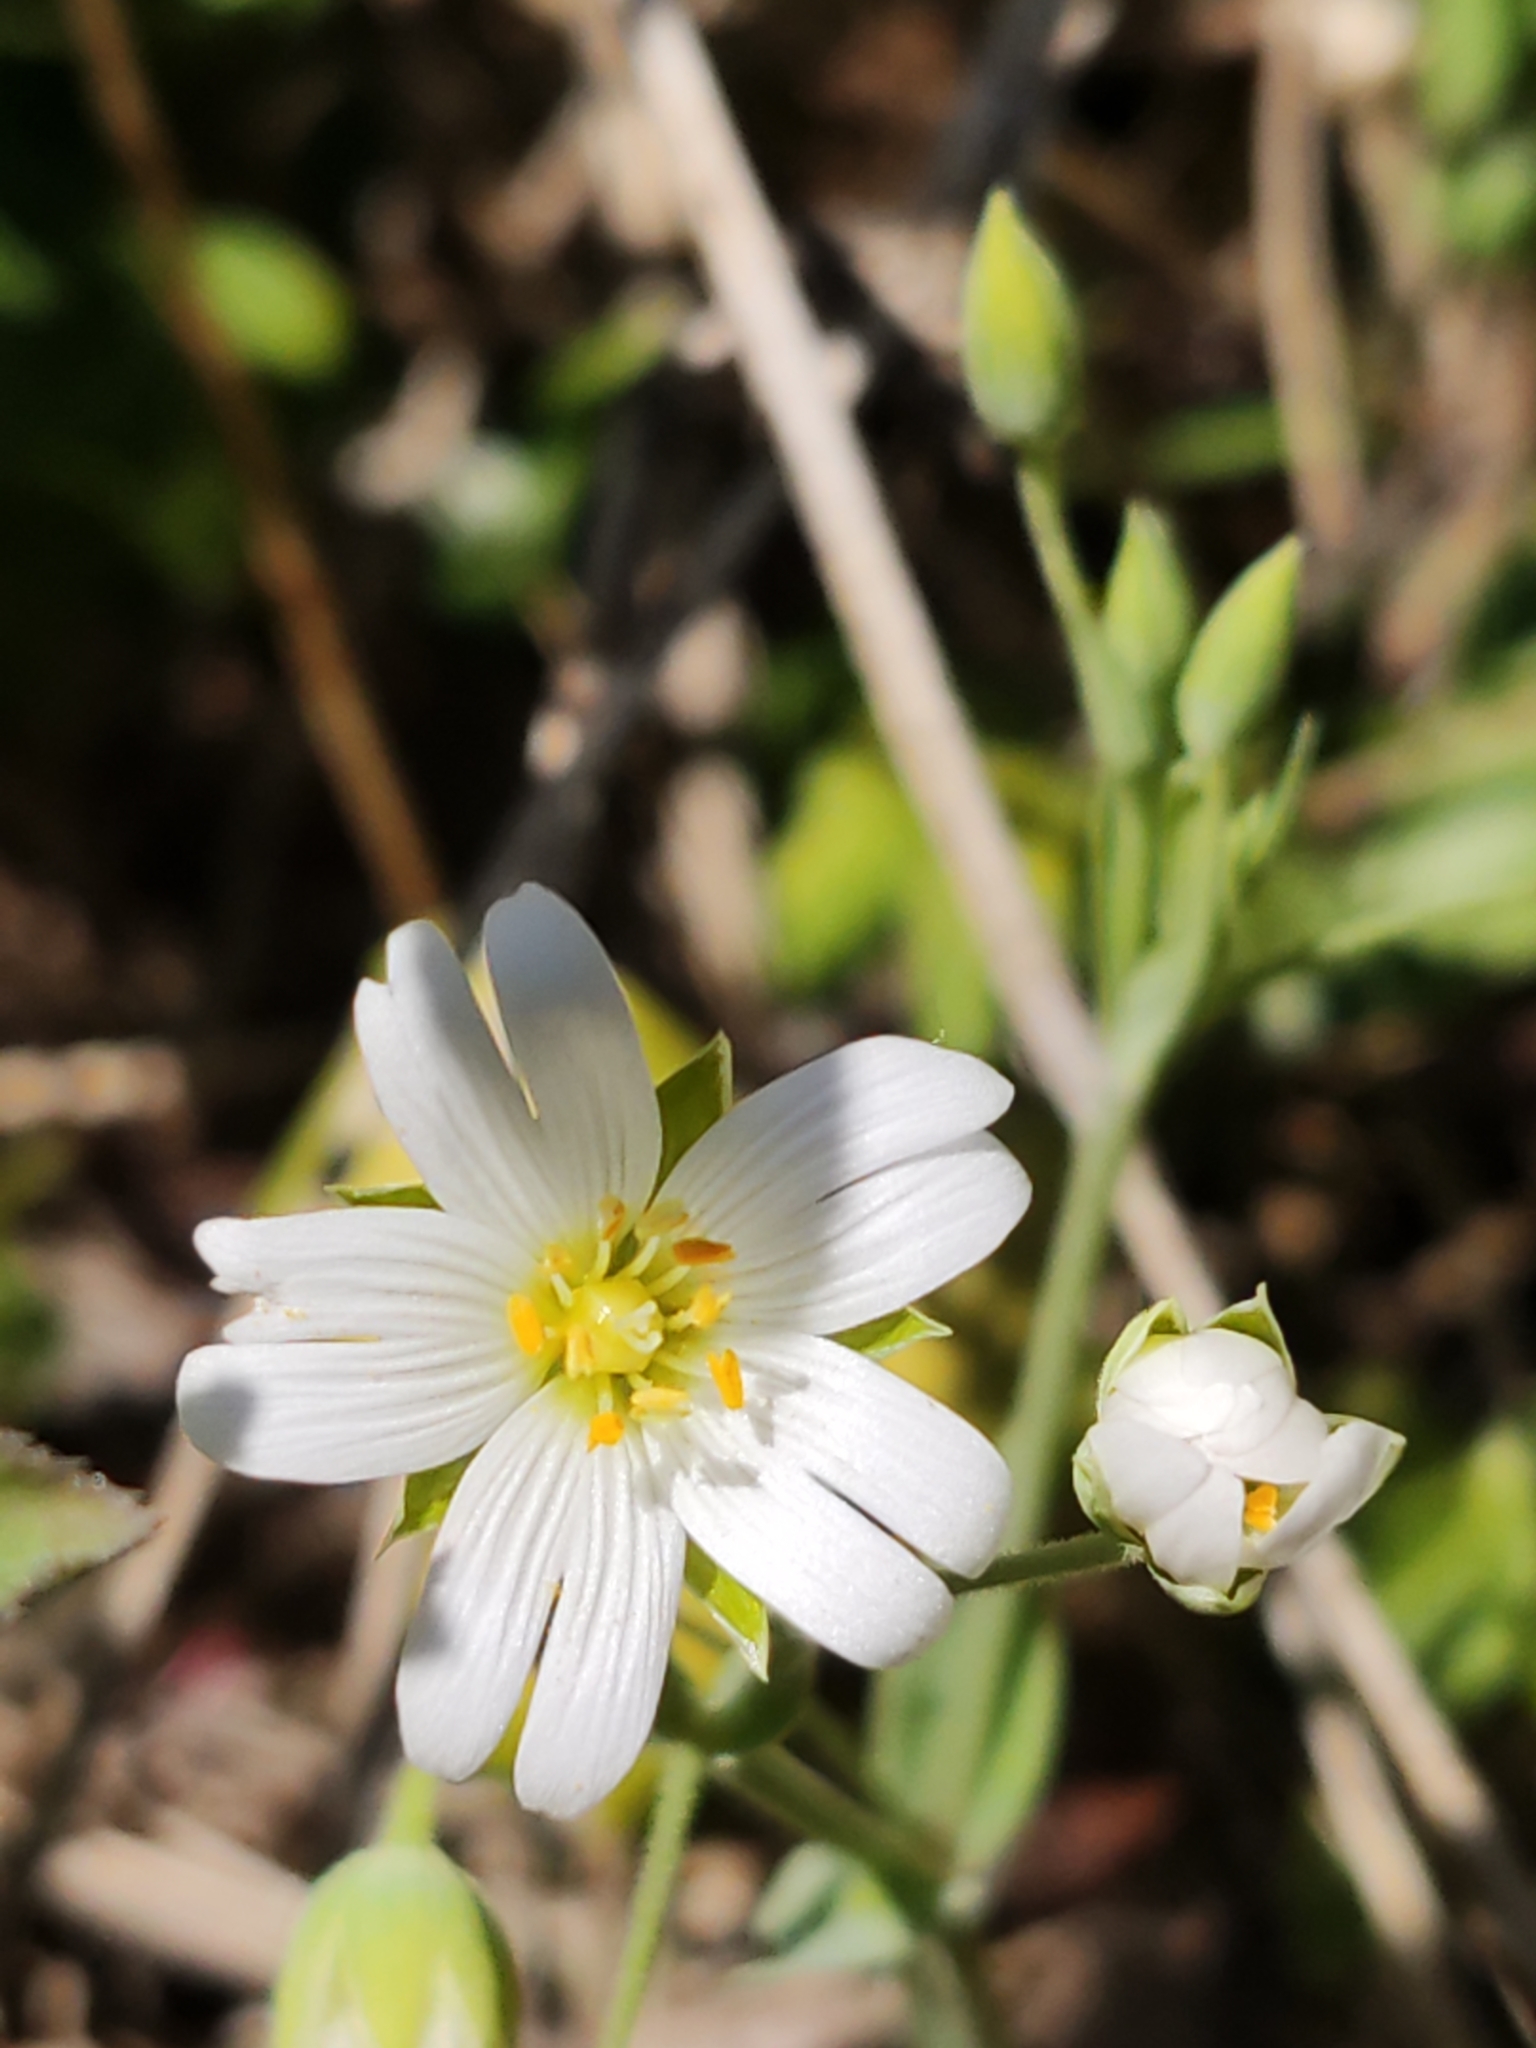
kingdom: Plantae
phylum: Tracheophyta
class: Magnoliopsida
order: Caryophyllales
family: Caryophyllaceae
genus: Rabelera
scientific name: Rabelera holostea
